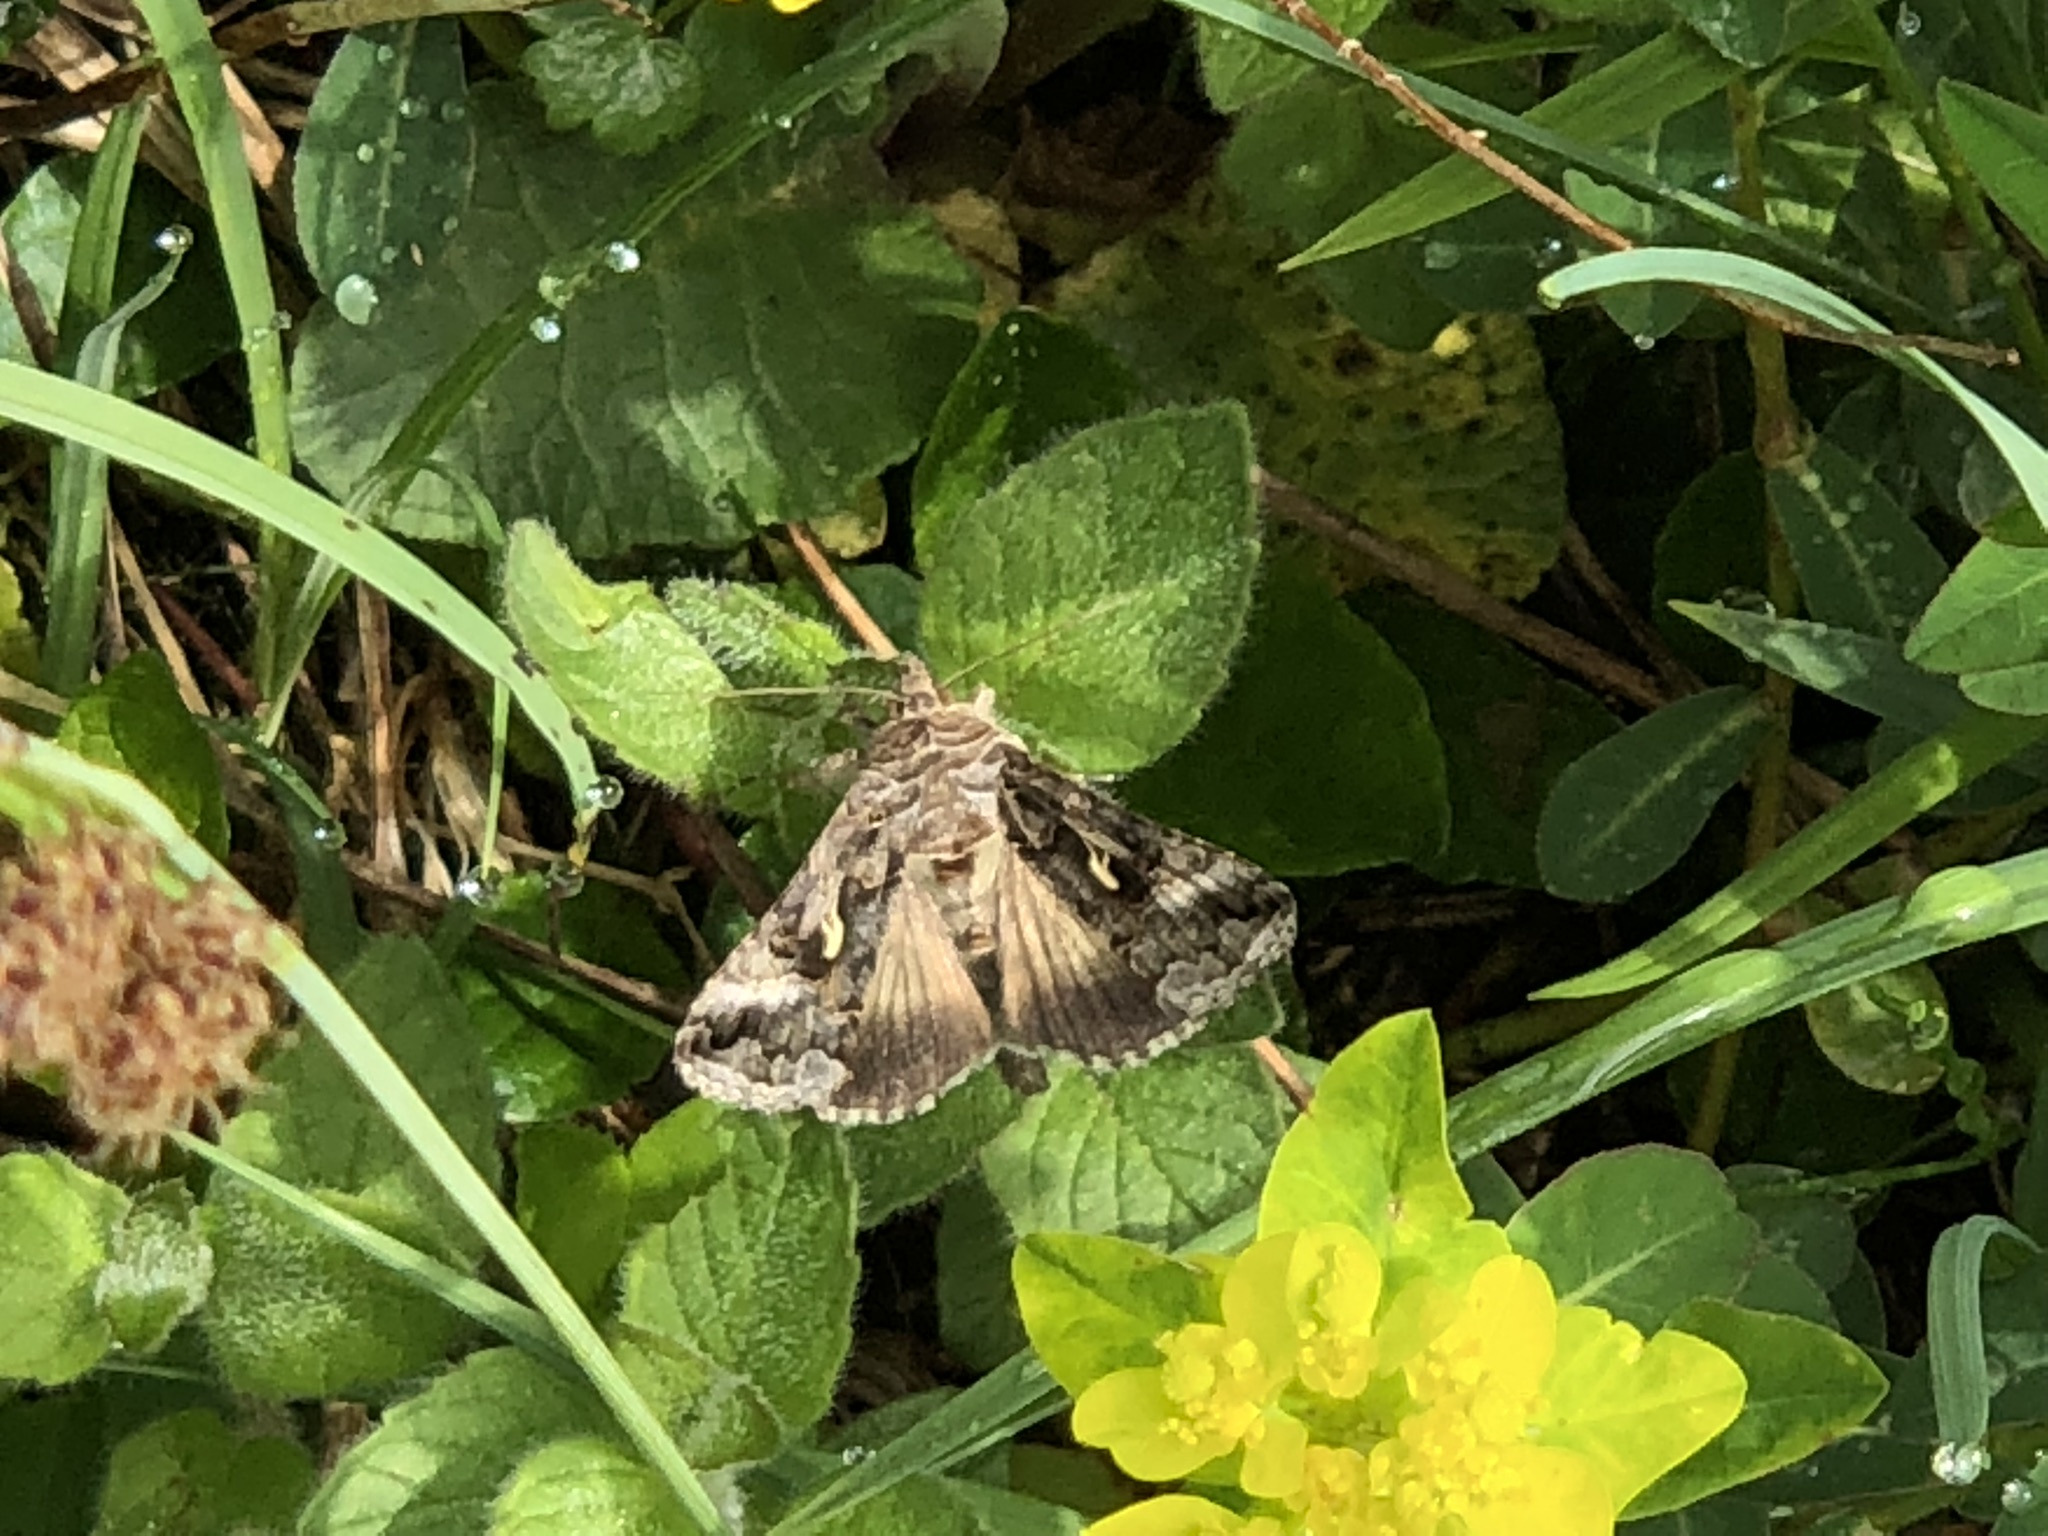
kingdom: Animalia
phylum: Arthropoda
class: Insecta
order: Lepidoptera
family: Noctuidae
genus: Autographa
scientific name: Autographa gamma
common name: Silver y
